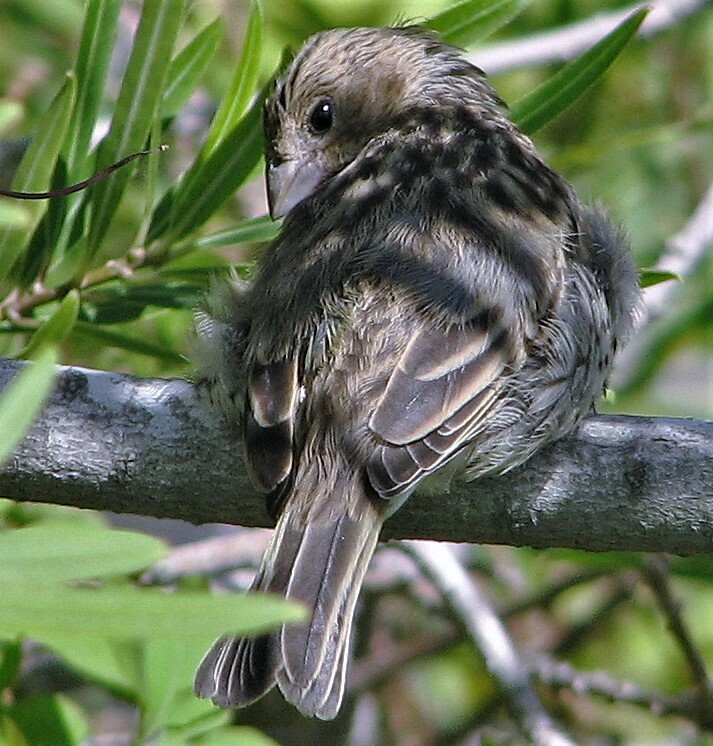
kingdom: Animalia
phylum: Chordata
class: Aves
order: Passeriformes
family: Thraupidae
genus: Sicalis
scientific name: Sicalis flaveola
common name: Saffron finch
